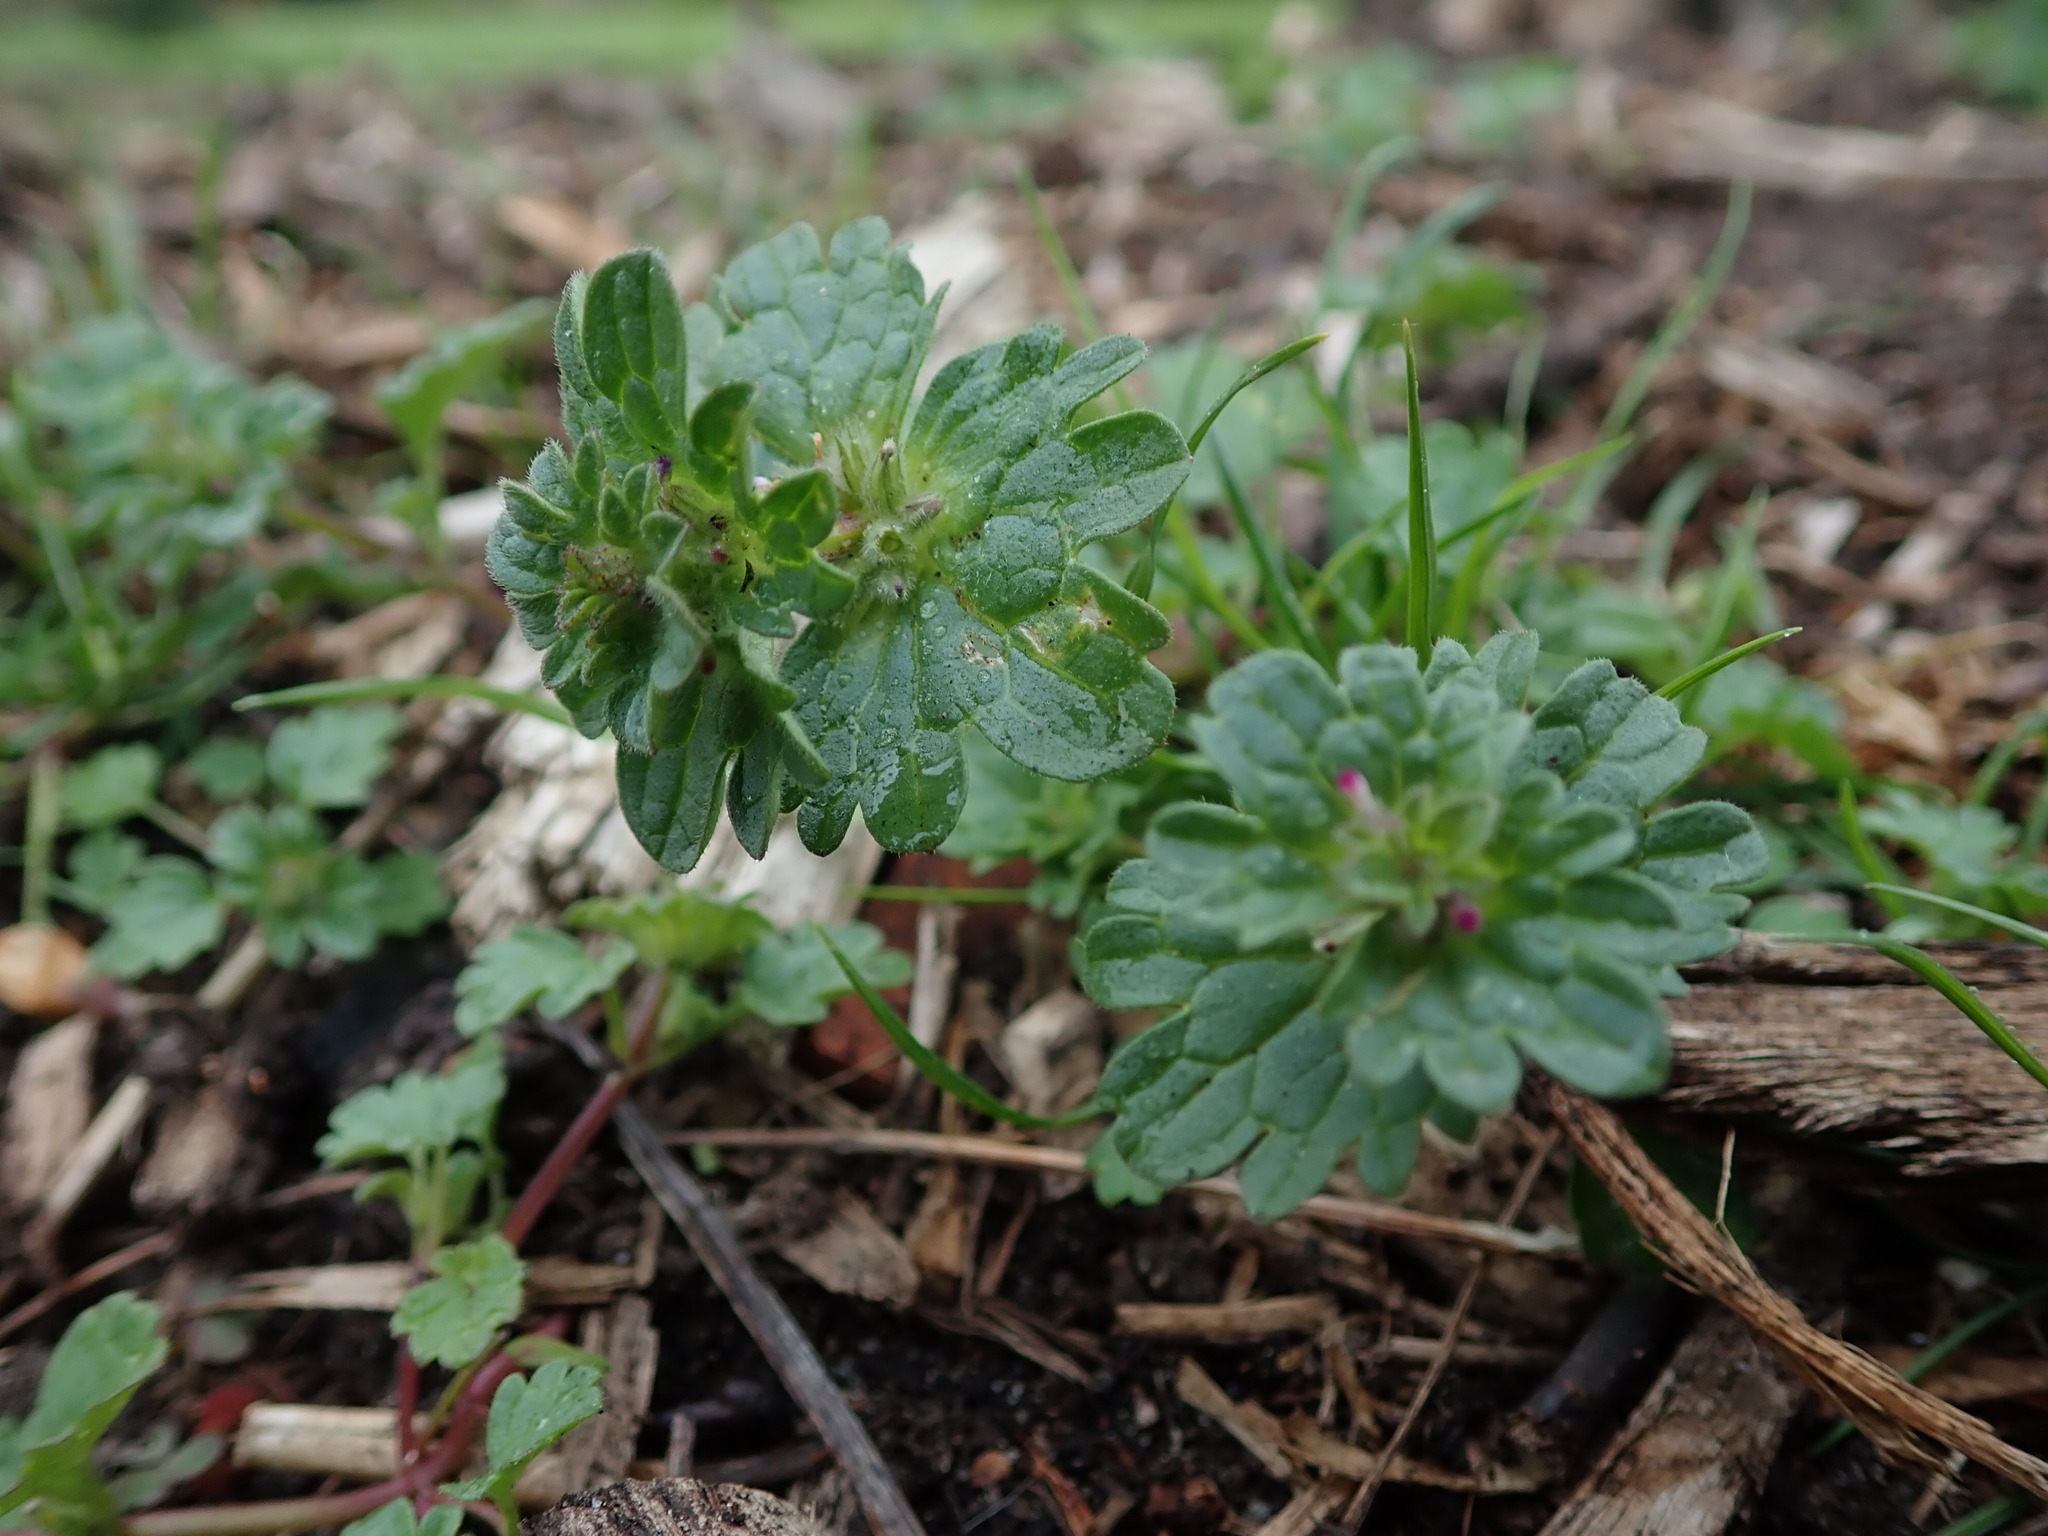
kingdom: Plantae
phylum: Tracheophyta
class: Magnoliopsida
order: Lamiales
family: Lamiaceae
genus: Lamium
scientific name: Lamium amplexicaule
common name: Henbit dead-nettle
